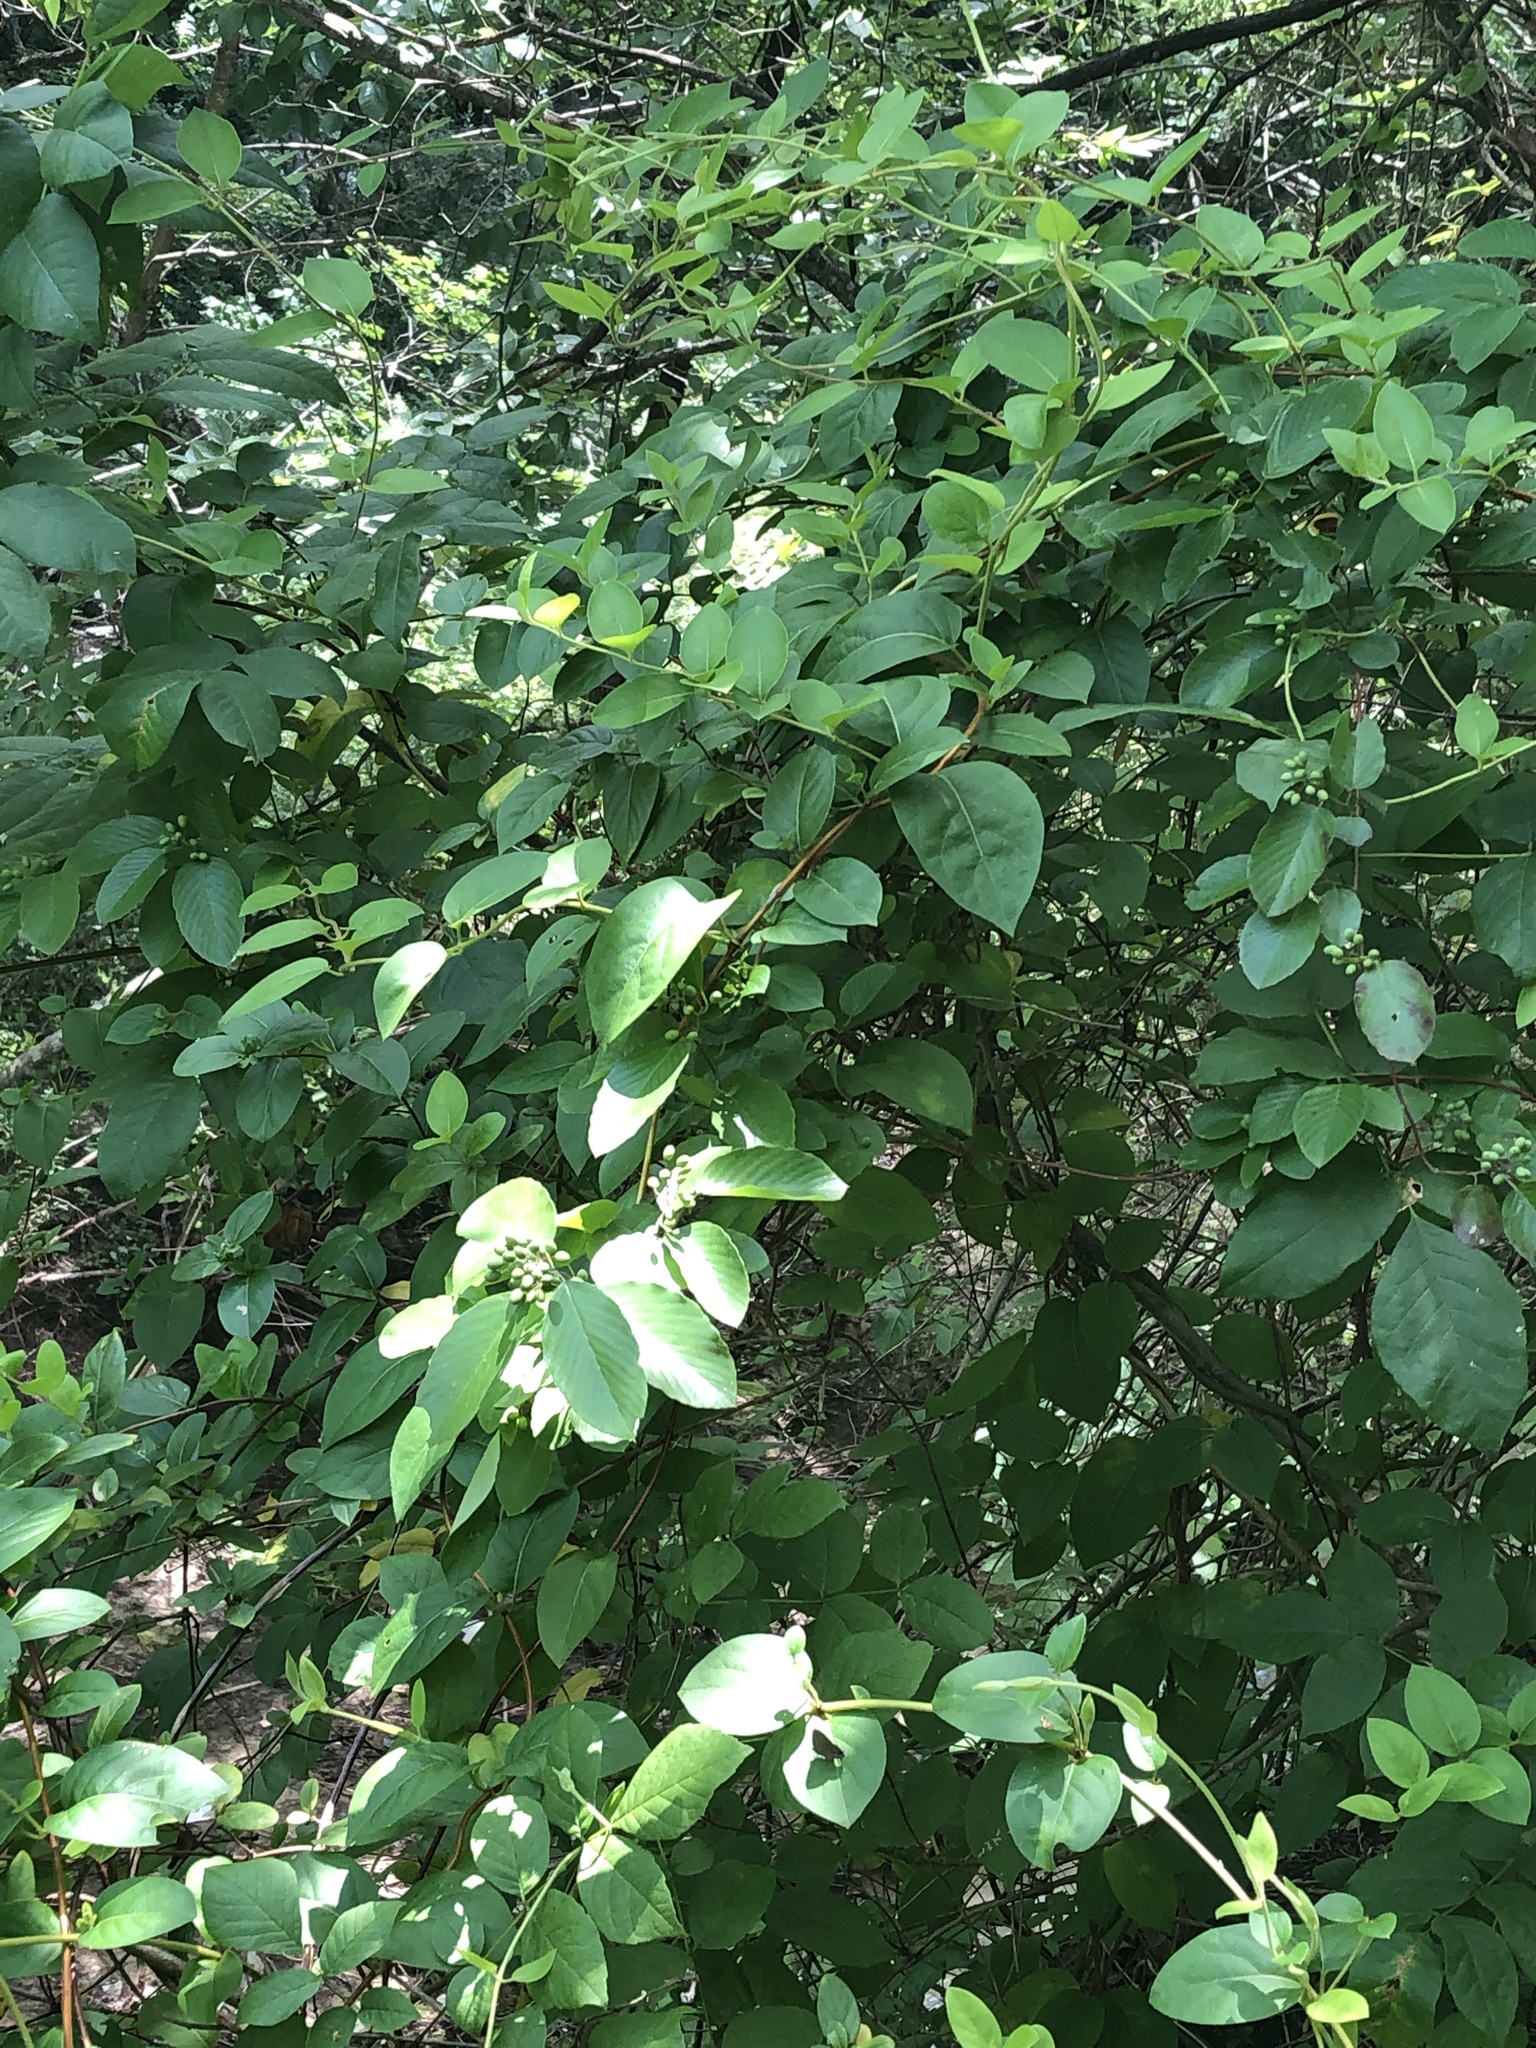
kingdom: Plantae
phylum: Tracheophyta
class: Magnoliopsida
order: Rosales
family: Rhamnaceae
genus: Berchemia
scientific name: Berchemia scandens
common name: Supplejack
